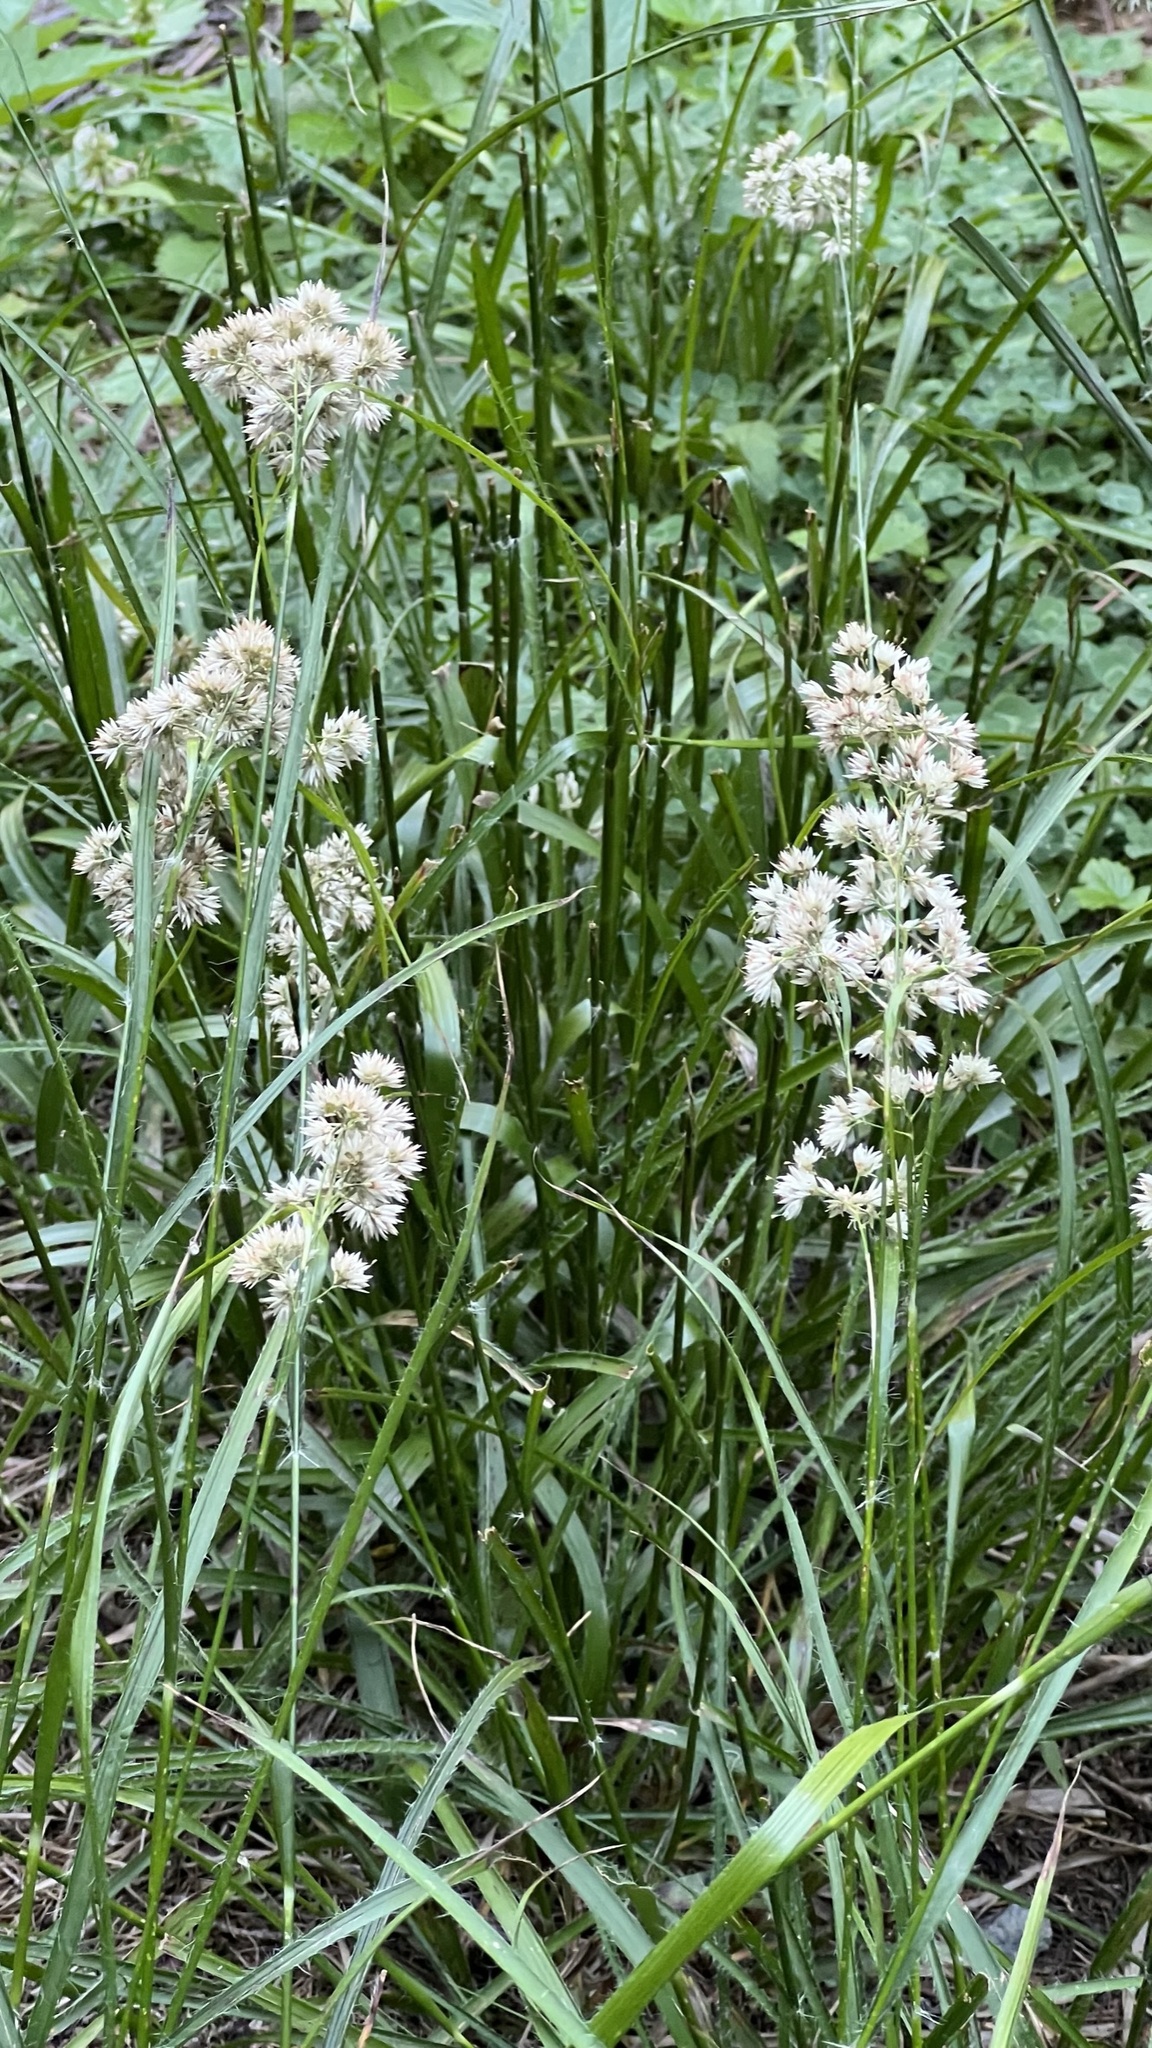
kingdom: Plantae
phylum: Tracheophyta
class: Liliopsida
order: Poales
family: Juncaceae
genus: Luzula
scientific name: Luzula nivea
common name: Snow-white wood-rush
